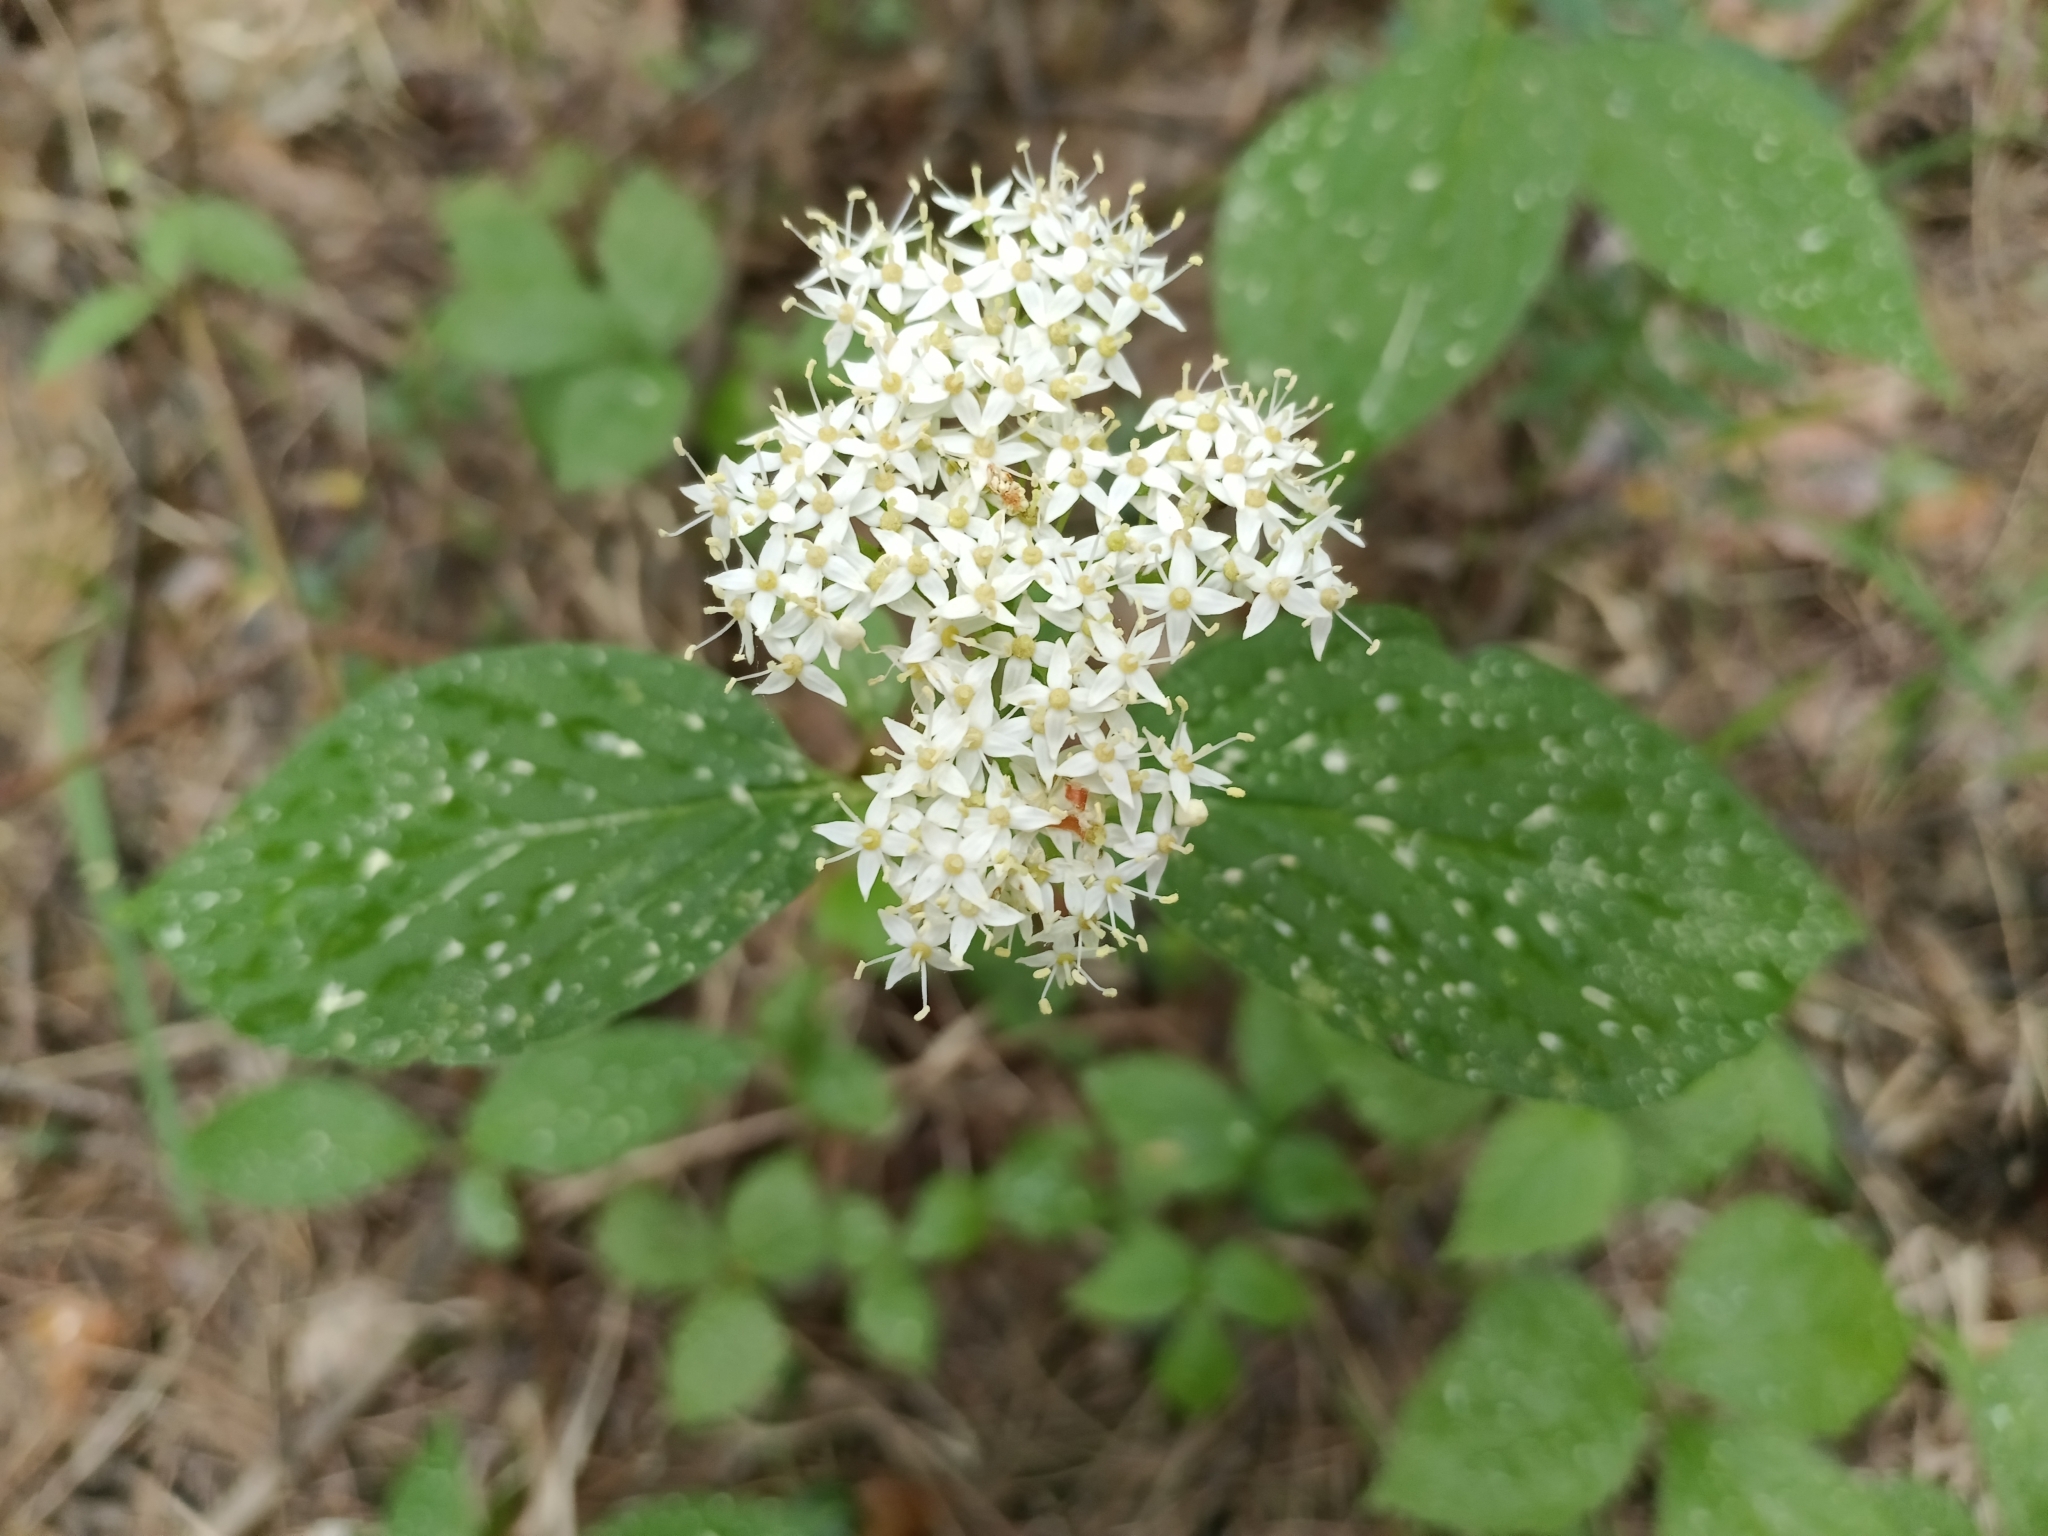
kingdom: Plantae
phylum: Tracheophyta
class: Magnoliopsida
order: Cornales
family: Cornaceae
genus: Cornus
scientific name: Cornus alba
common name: White dogwood
